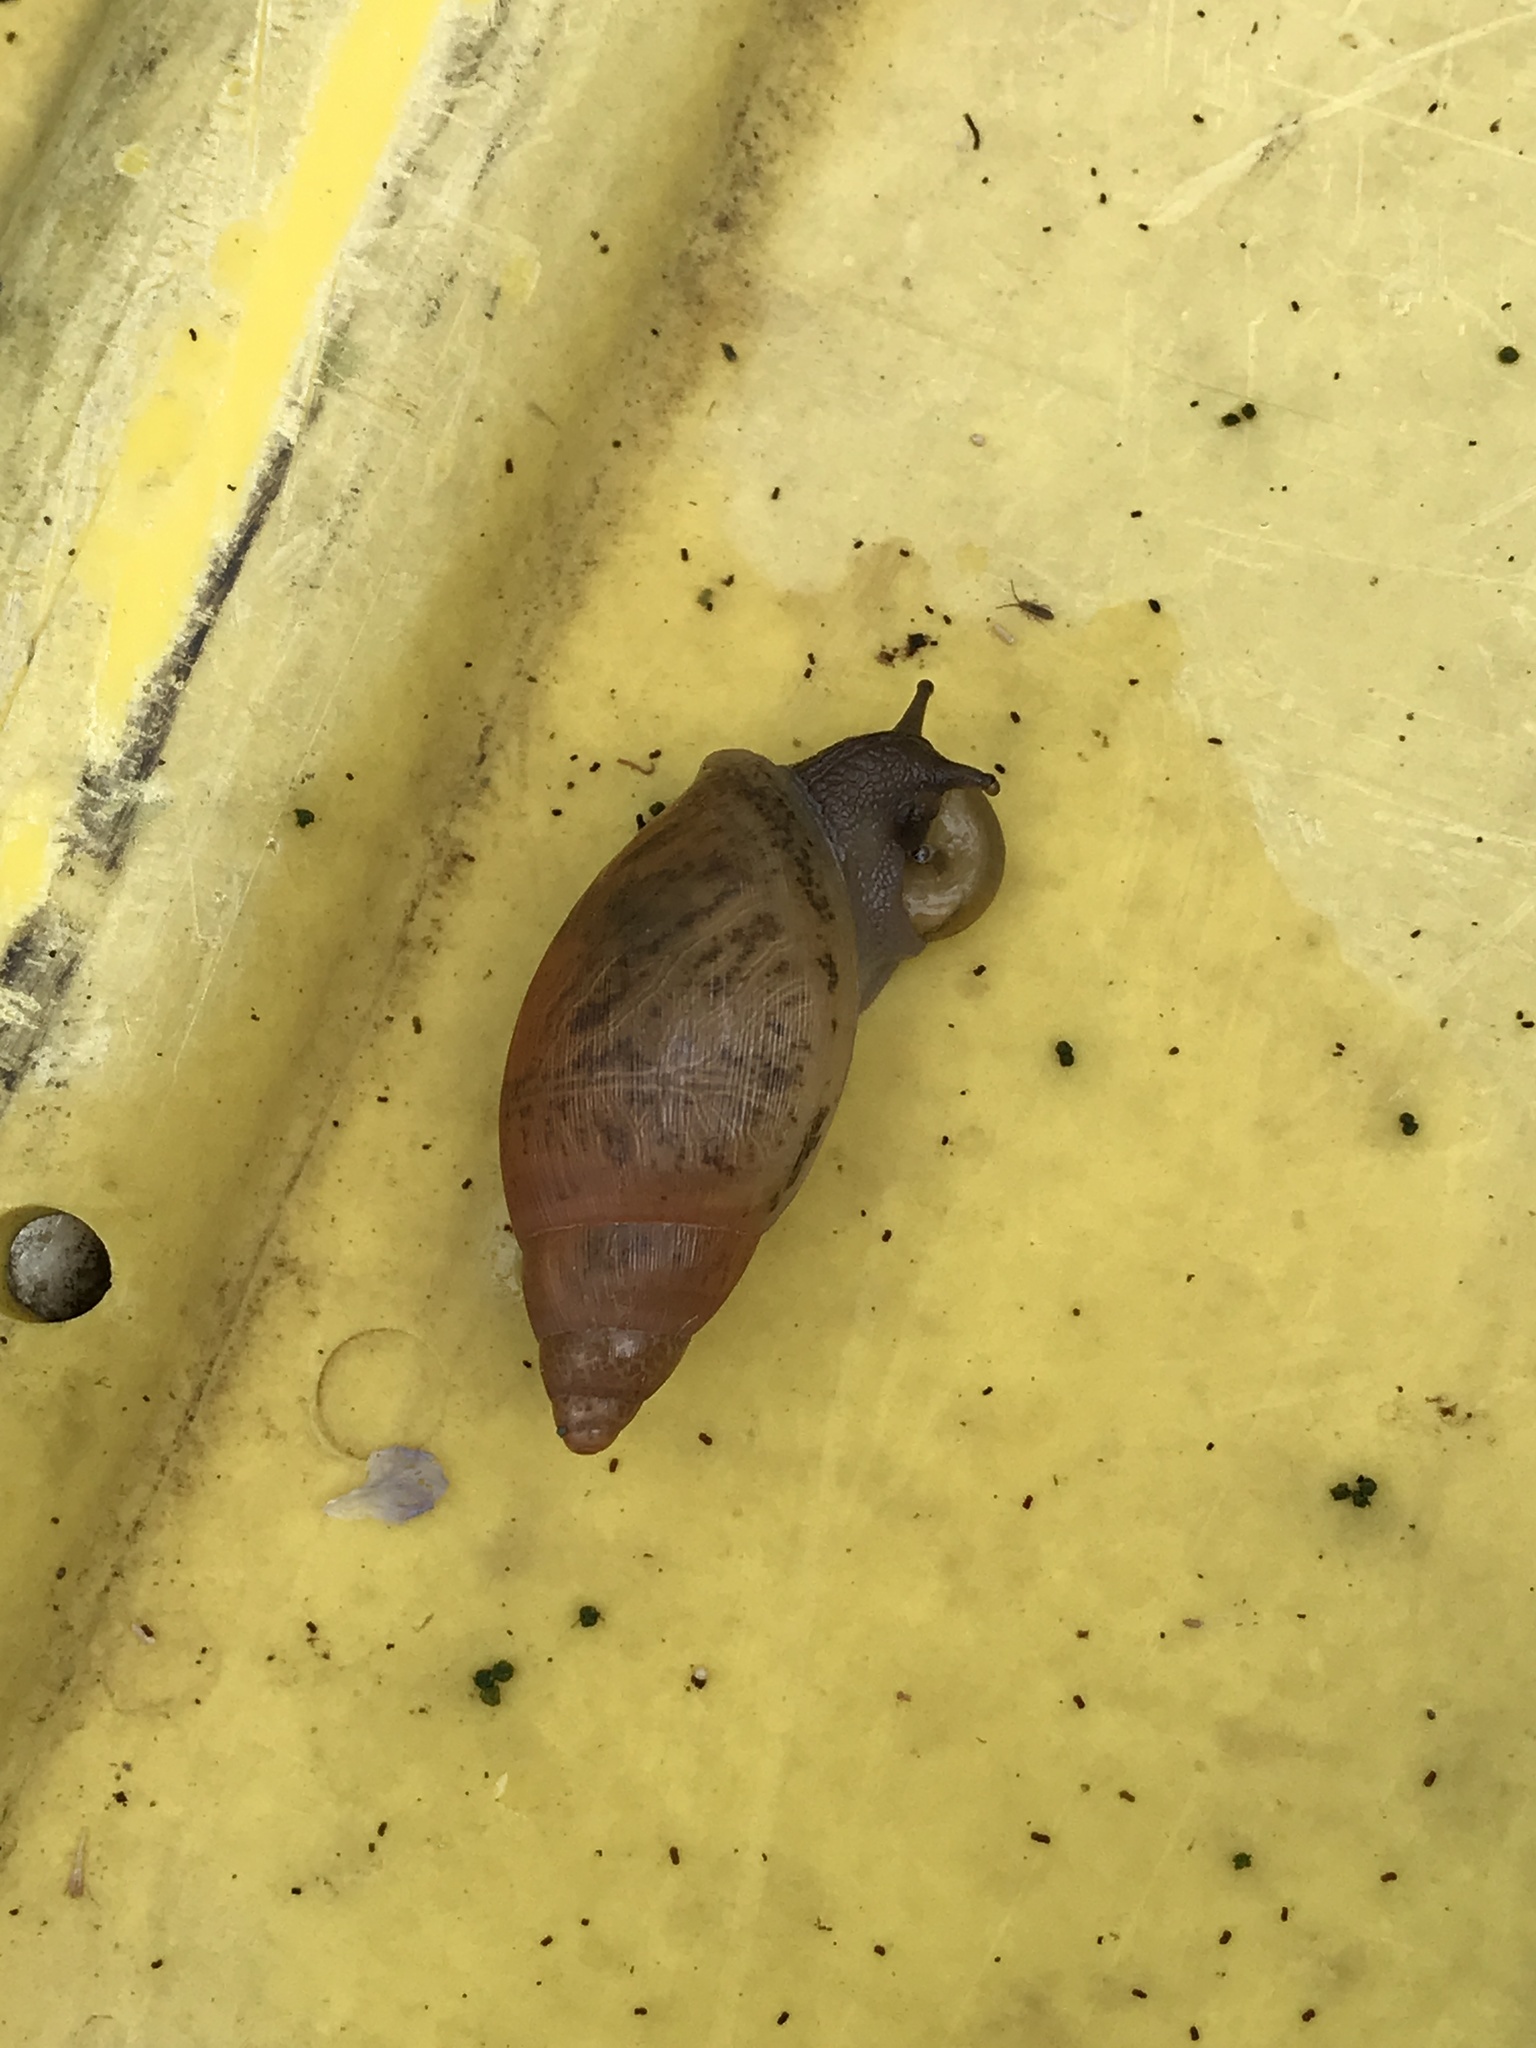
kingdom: Animalia
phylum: Mollusca
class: Gastropoda
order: Stylommatophora
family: Spiraxidae
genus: Euglandina
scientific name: Euglandina rosea
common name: Rosy wolfsnail
